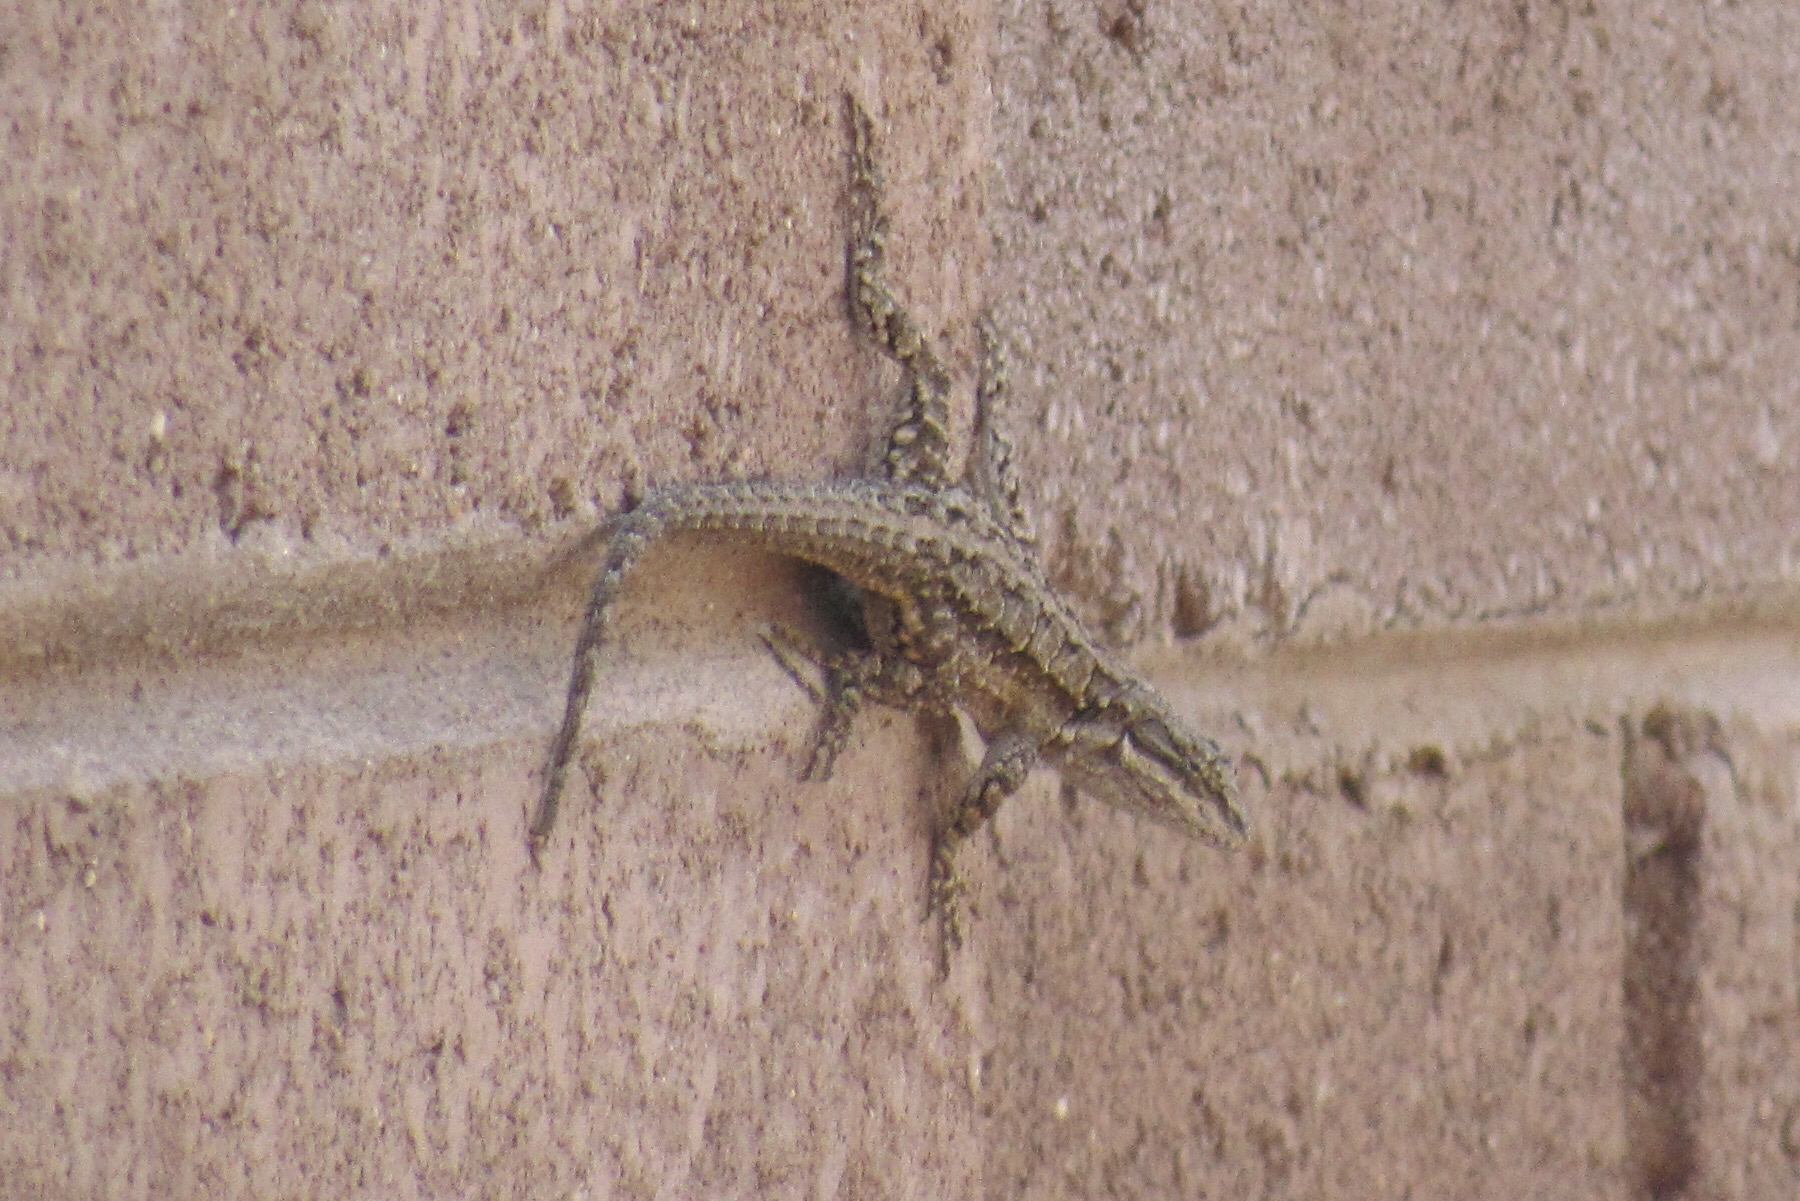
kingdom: Animalia
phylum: Chordata
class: Squamata
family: Phrynosomatidae
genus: Urosaurus
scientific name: Urosaurus ornatus
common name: Ornate tree lizard
